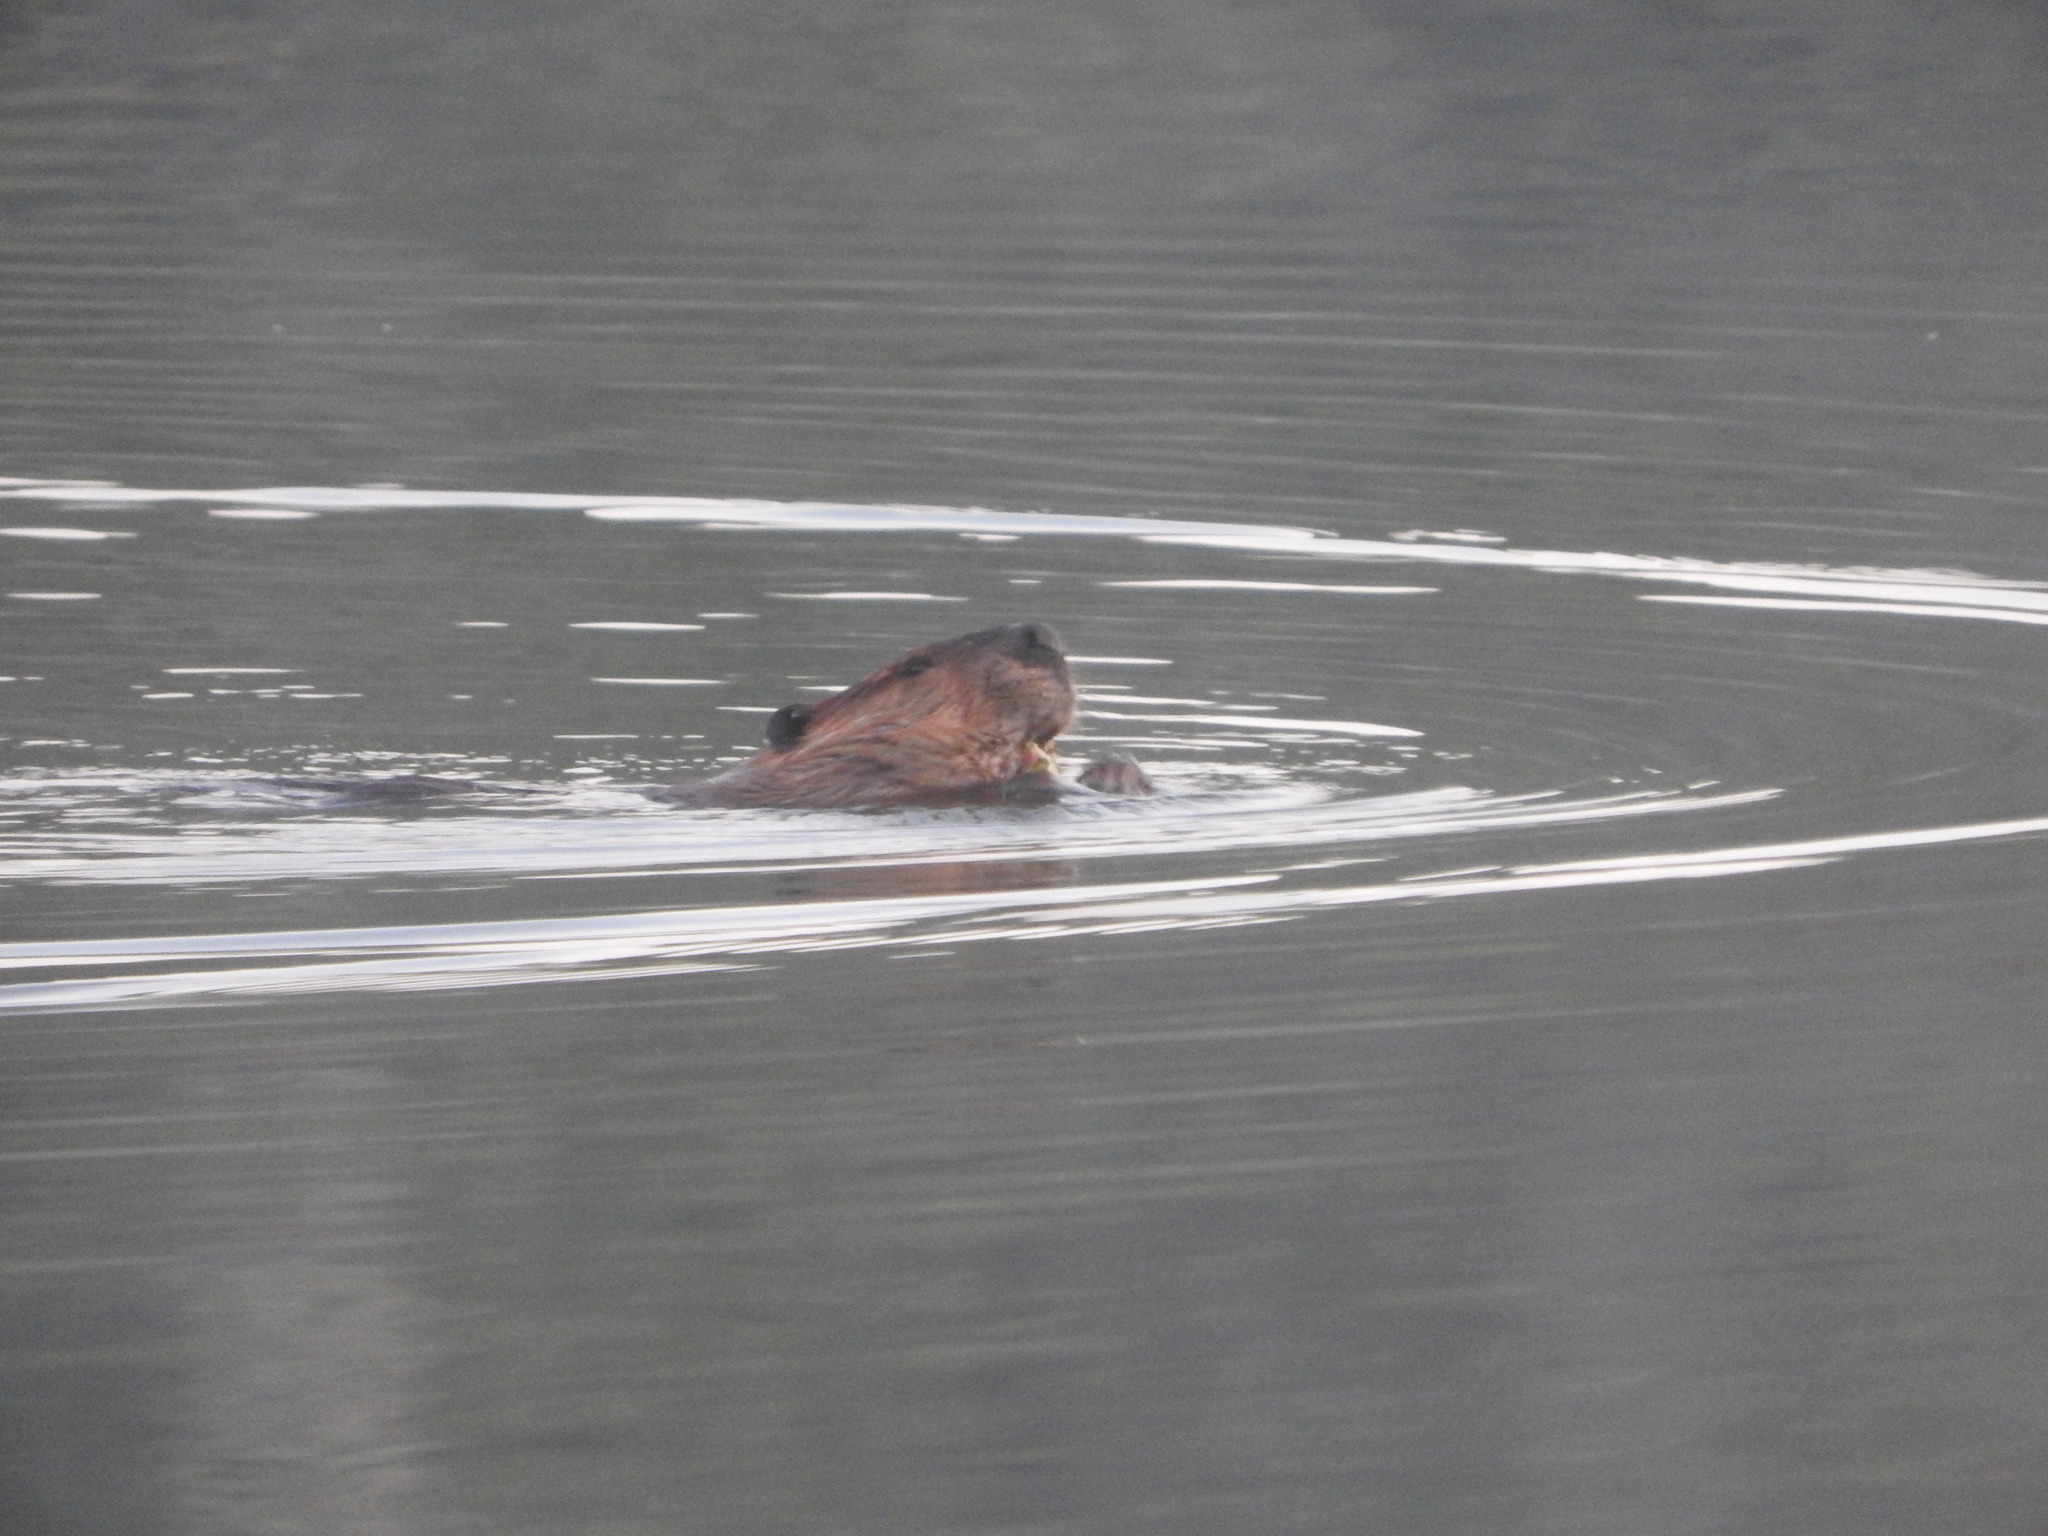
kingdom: Animalia
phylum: Chordata
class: Mammalia
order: Rodentia
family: Castoridae
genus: Castor
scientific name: Castor canadensis
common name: American beaver
